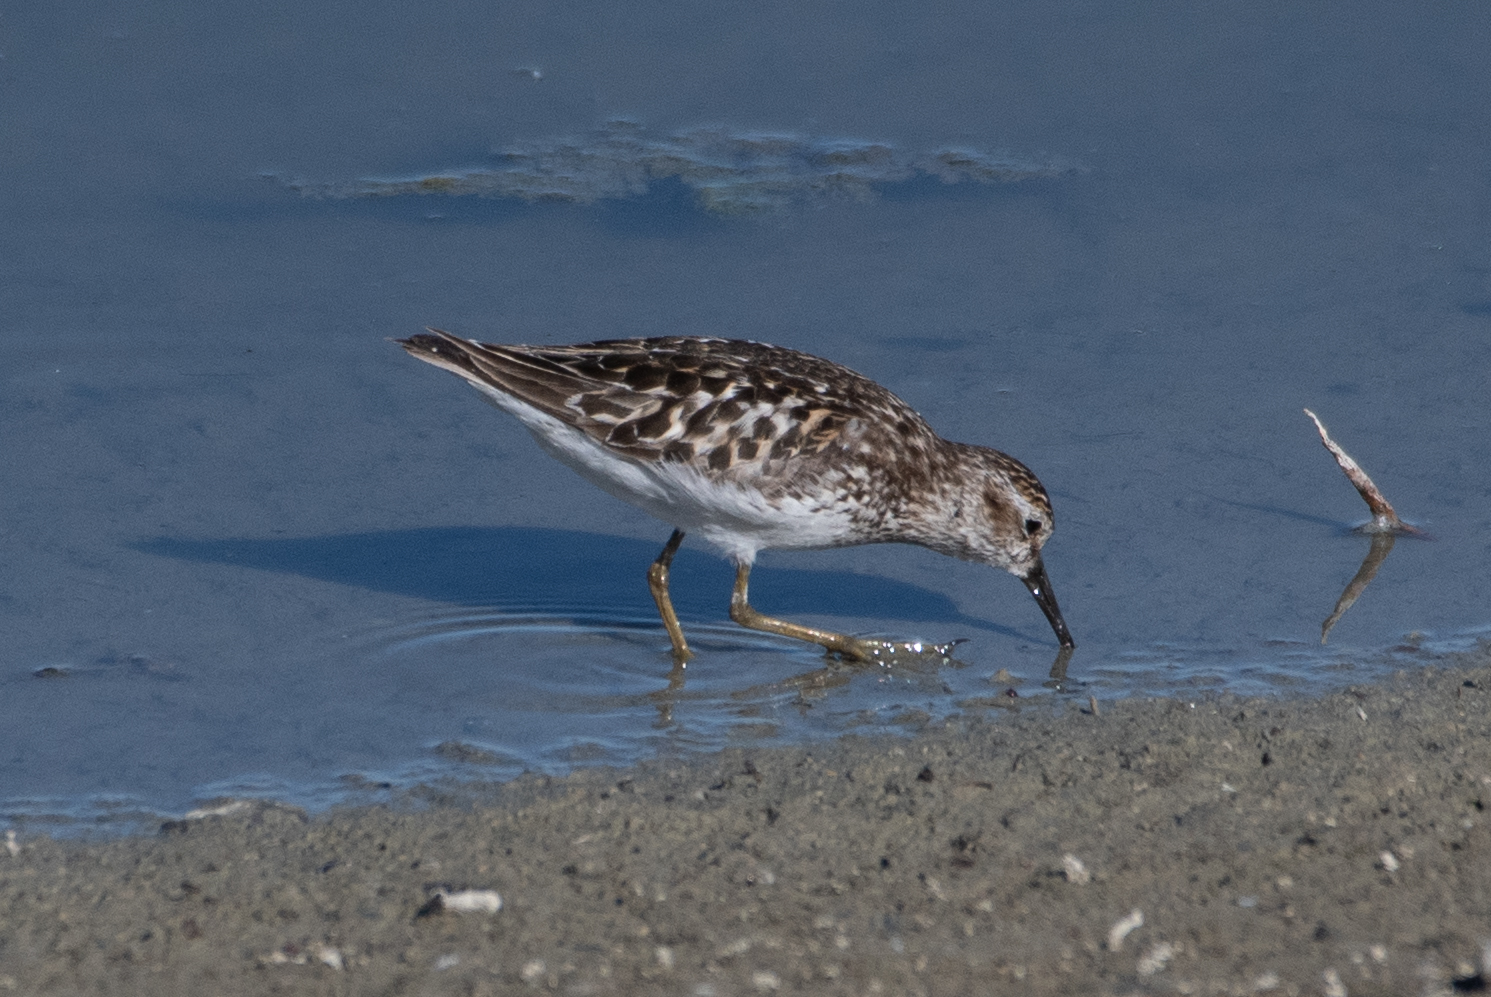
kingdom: Animalia
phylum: Chordata
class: Aves
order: Charadriiformes
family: Scolopacidae
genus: Calidris
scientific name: Calidris minutilla
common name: Least sandpiper
